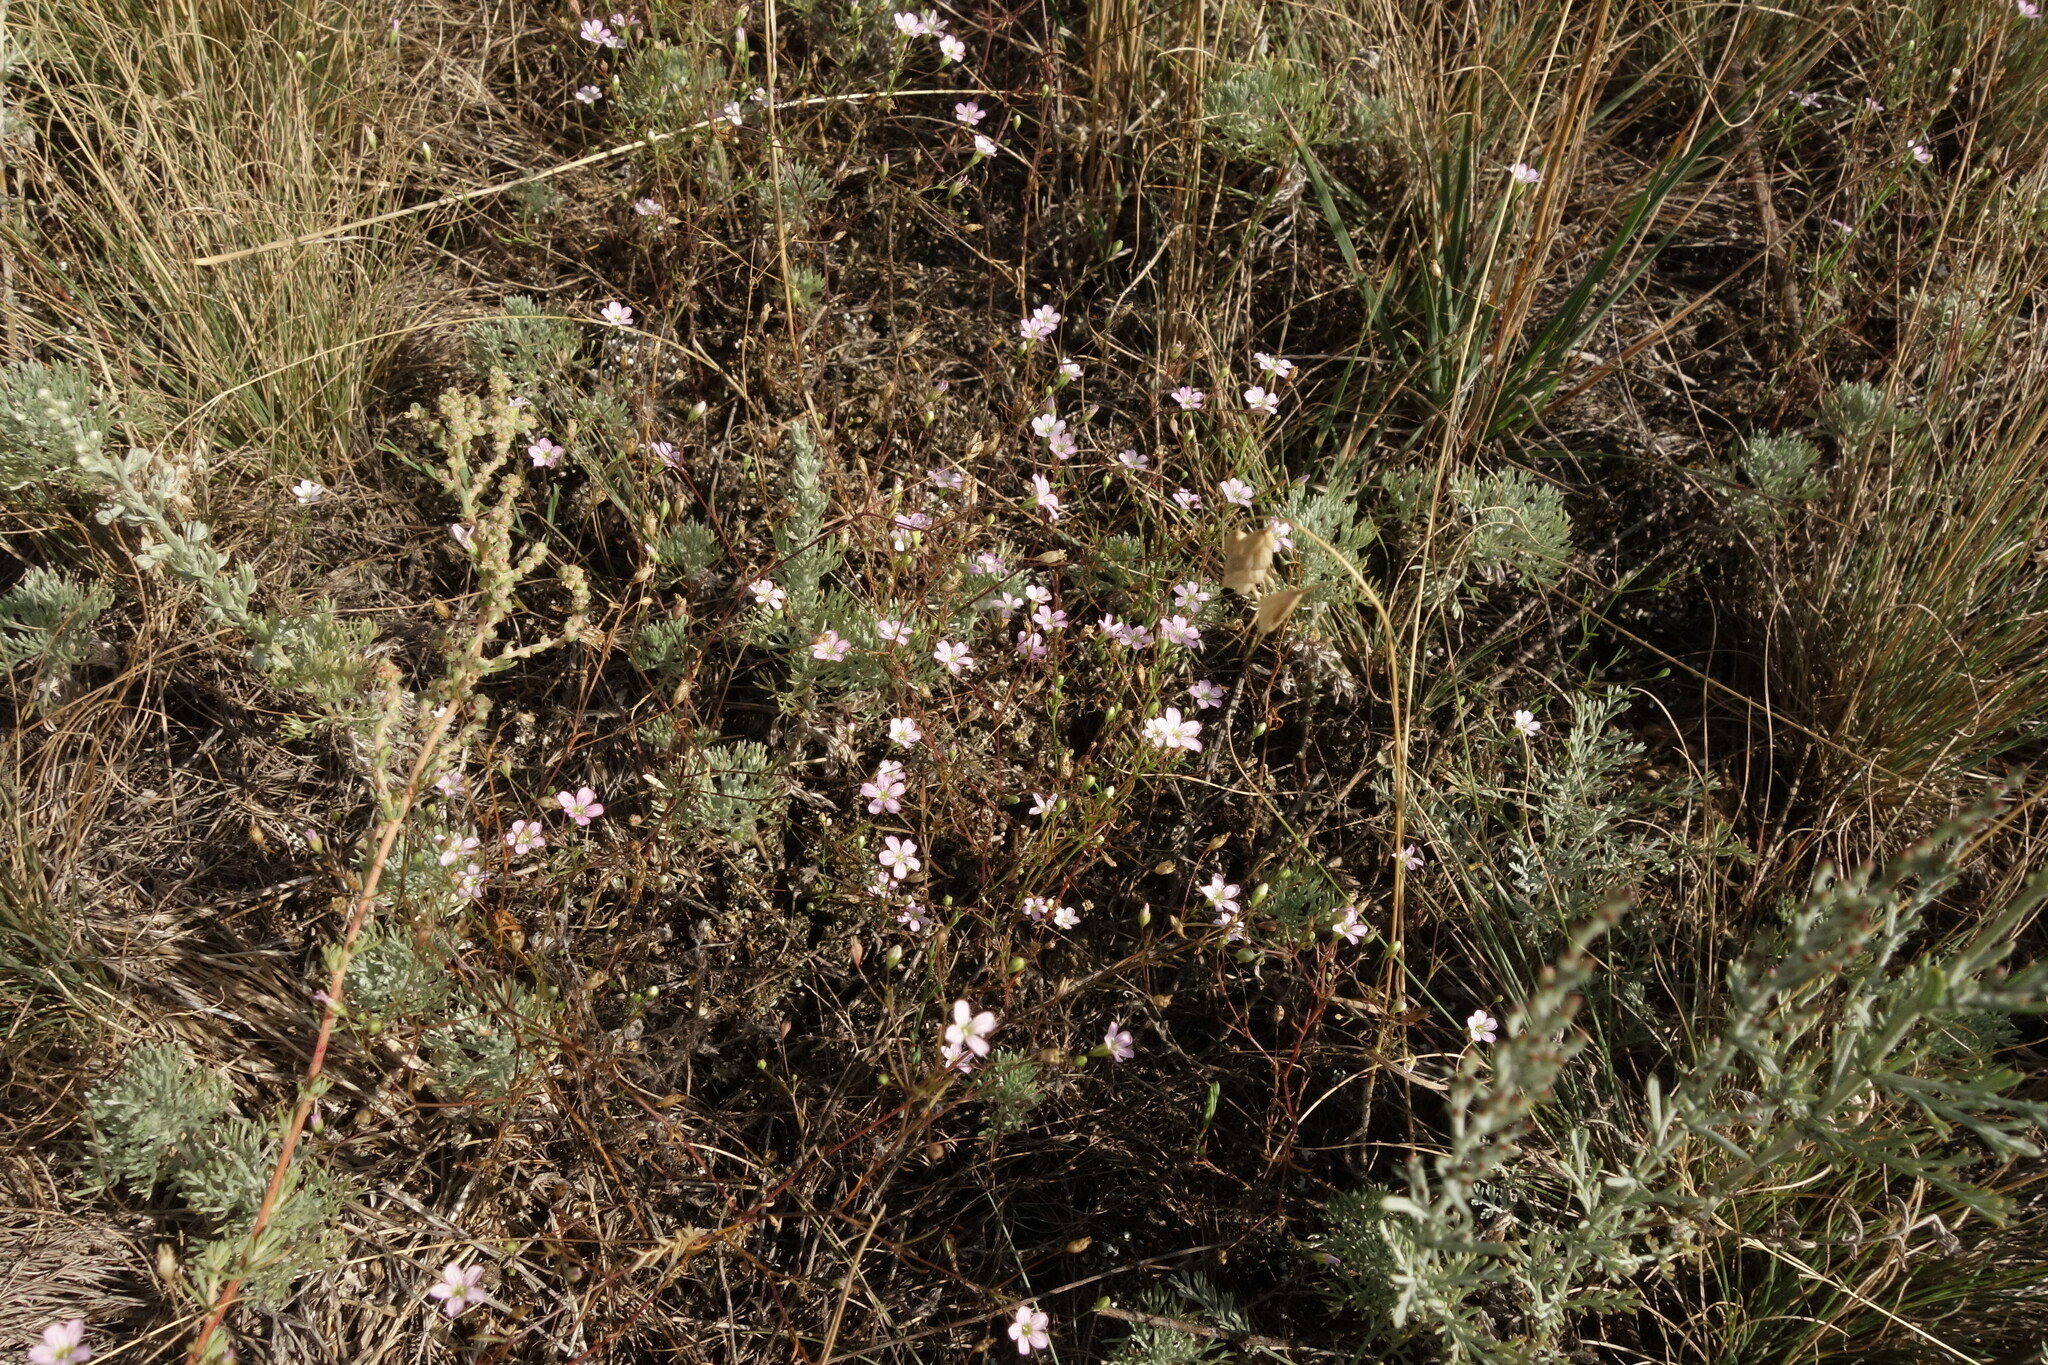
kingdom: Plantae
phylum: Tracheophyta
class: Magnoliopsida
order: Caryophyllales
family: Caryophyllaceae
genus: Psammophiliella
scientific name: Psammophiliella muralis
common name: Cushion baby's-breath
